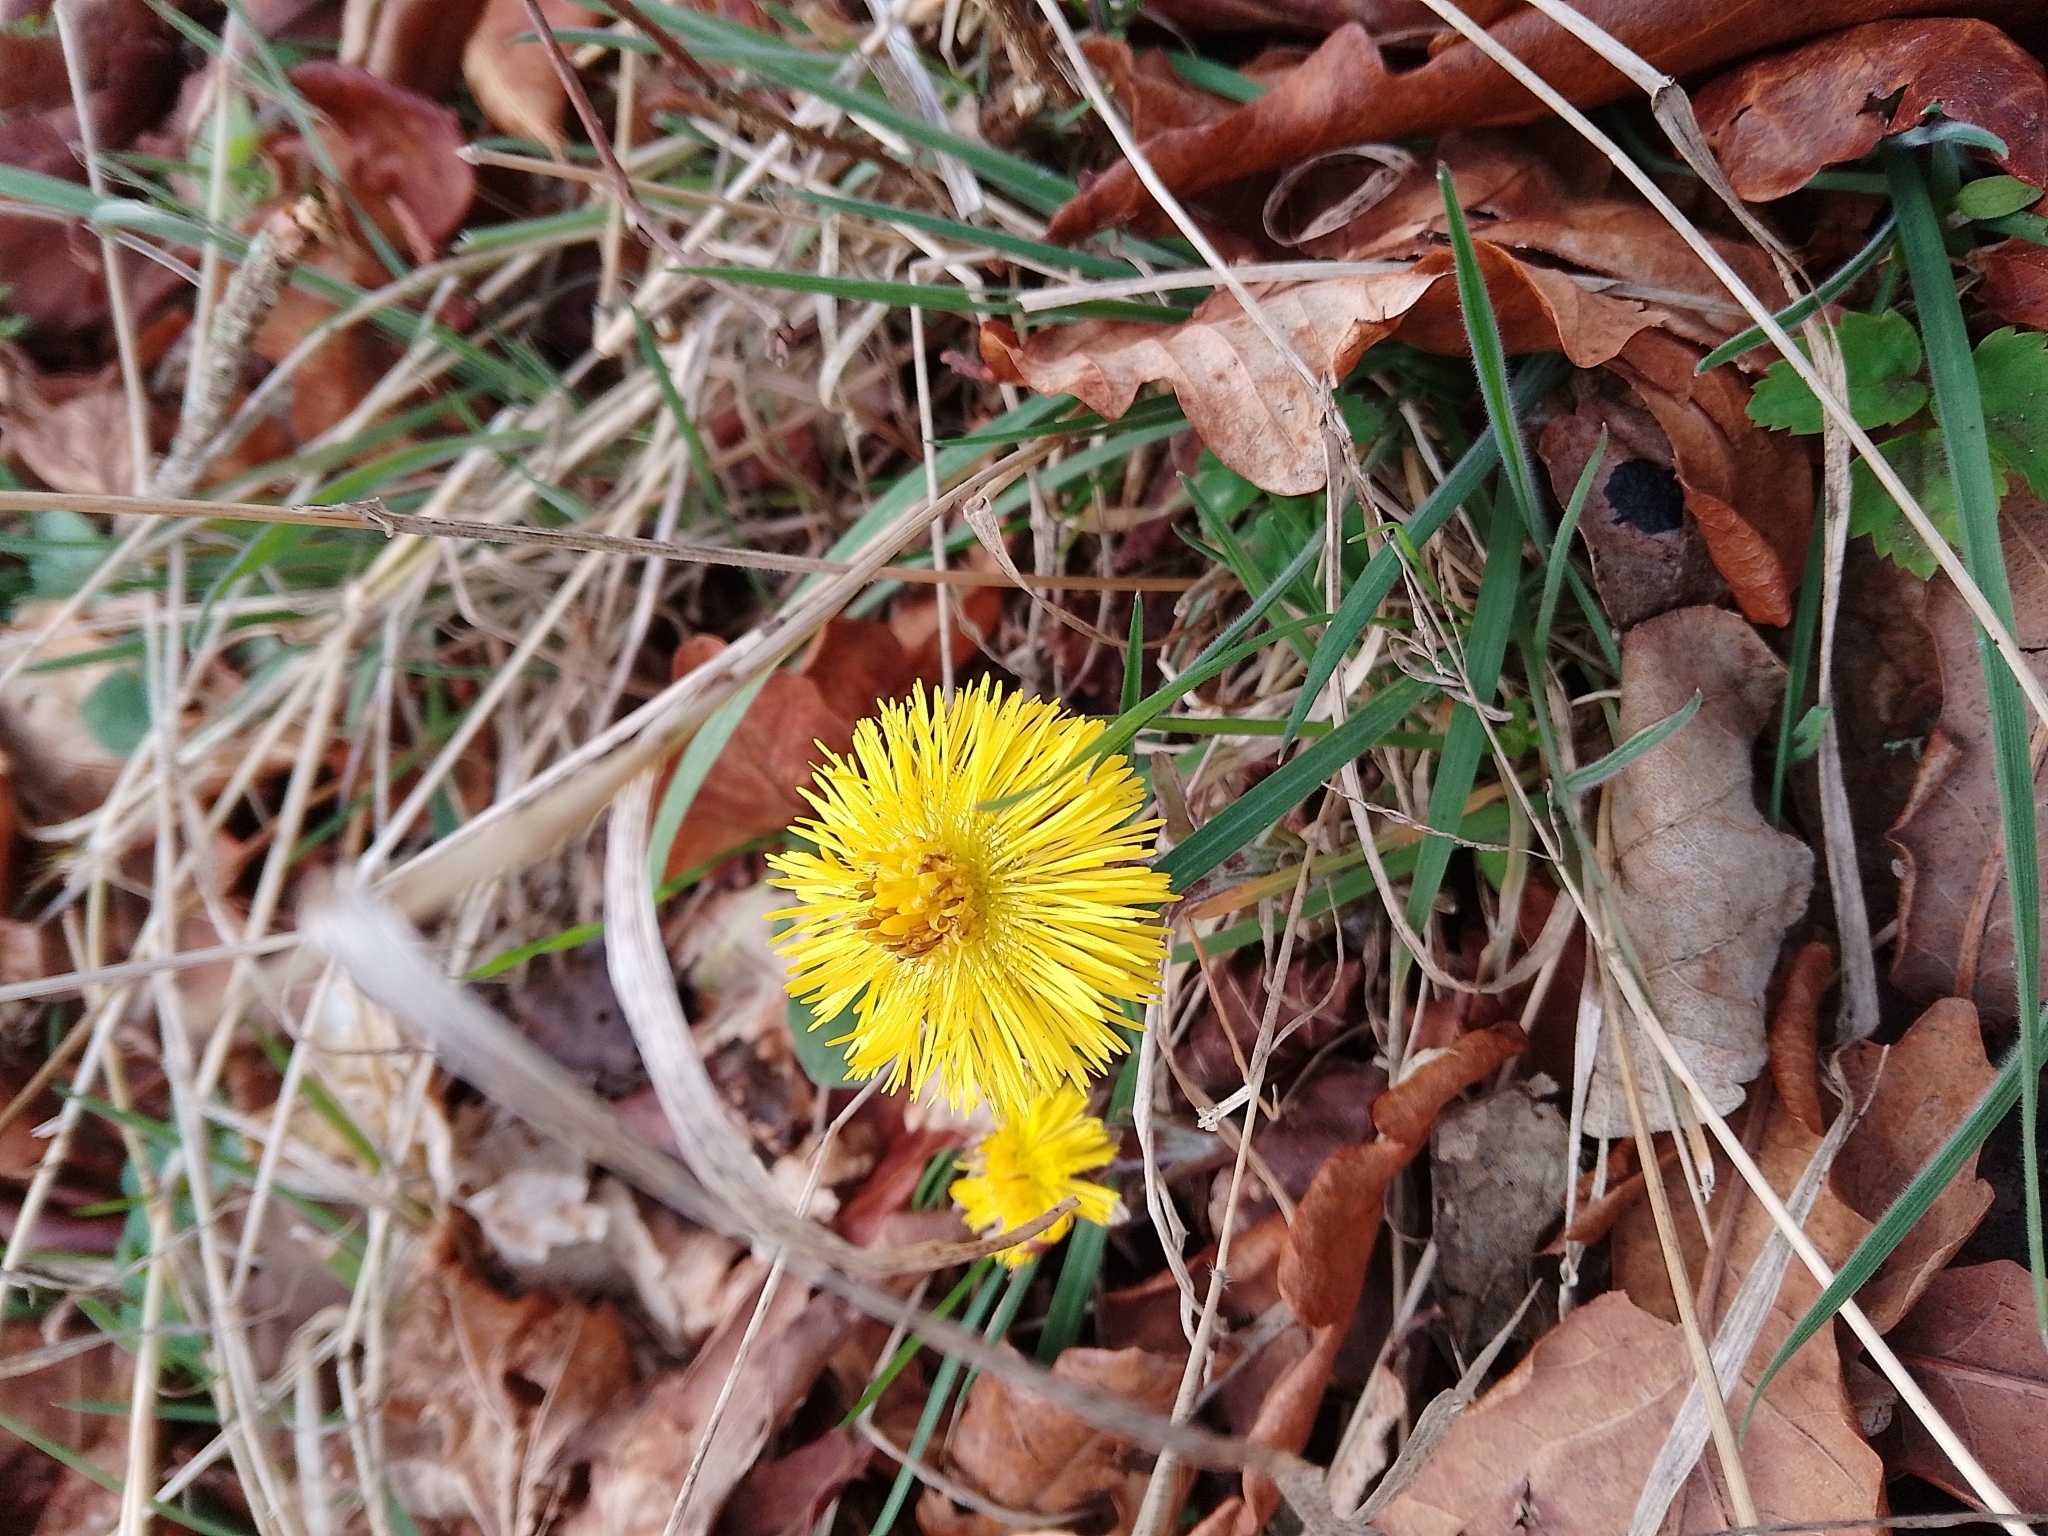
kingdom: Plantae
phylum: Tracheophyta
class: Magnoliopsida
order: Asterales
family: Asteraceae
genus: Tussilago
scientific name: Tussilago farfara
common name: Coltsfoot
